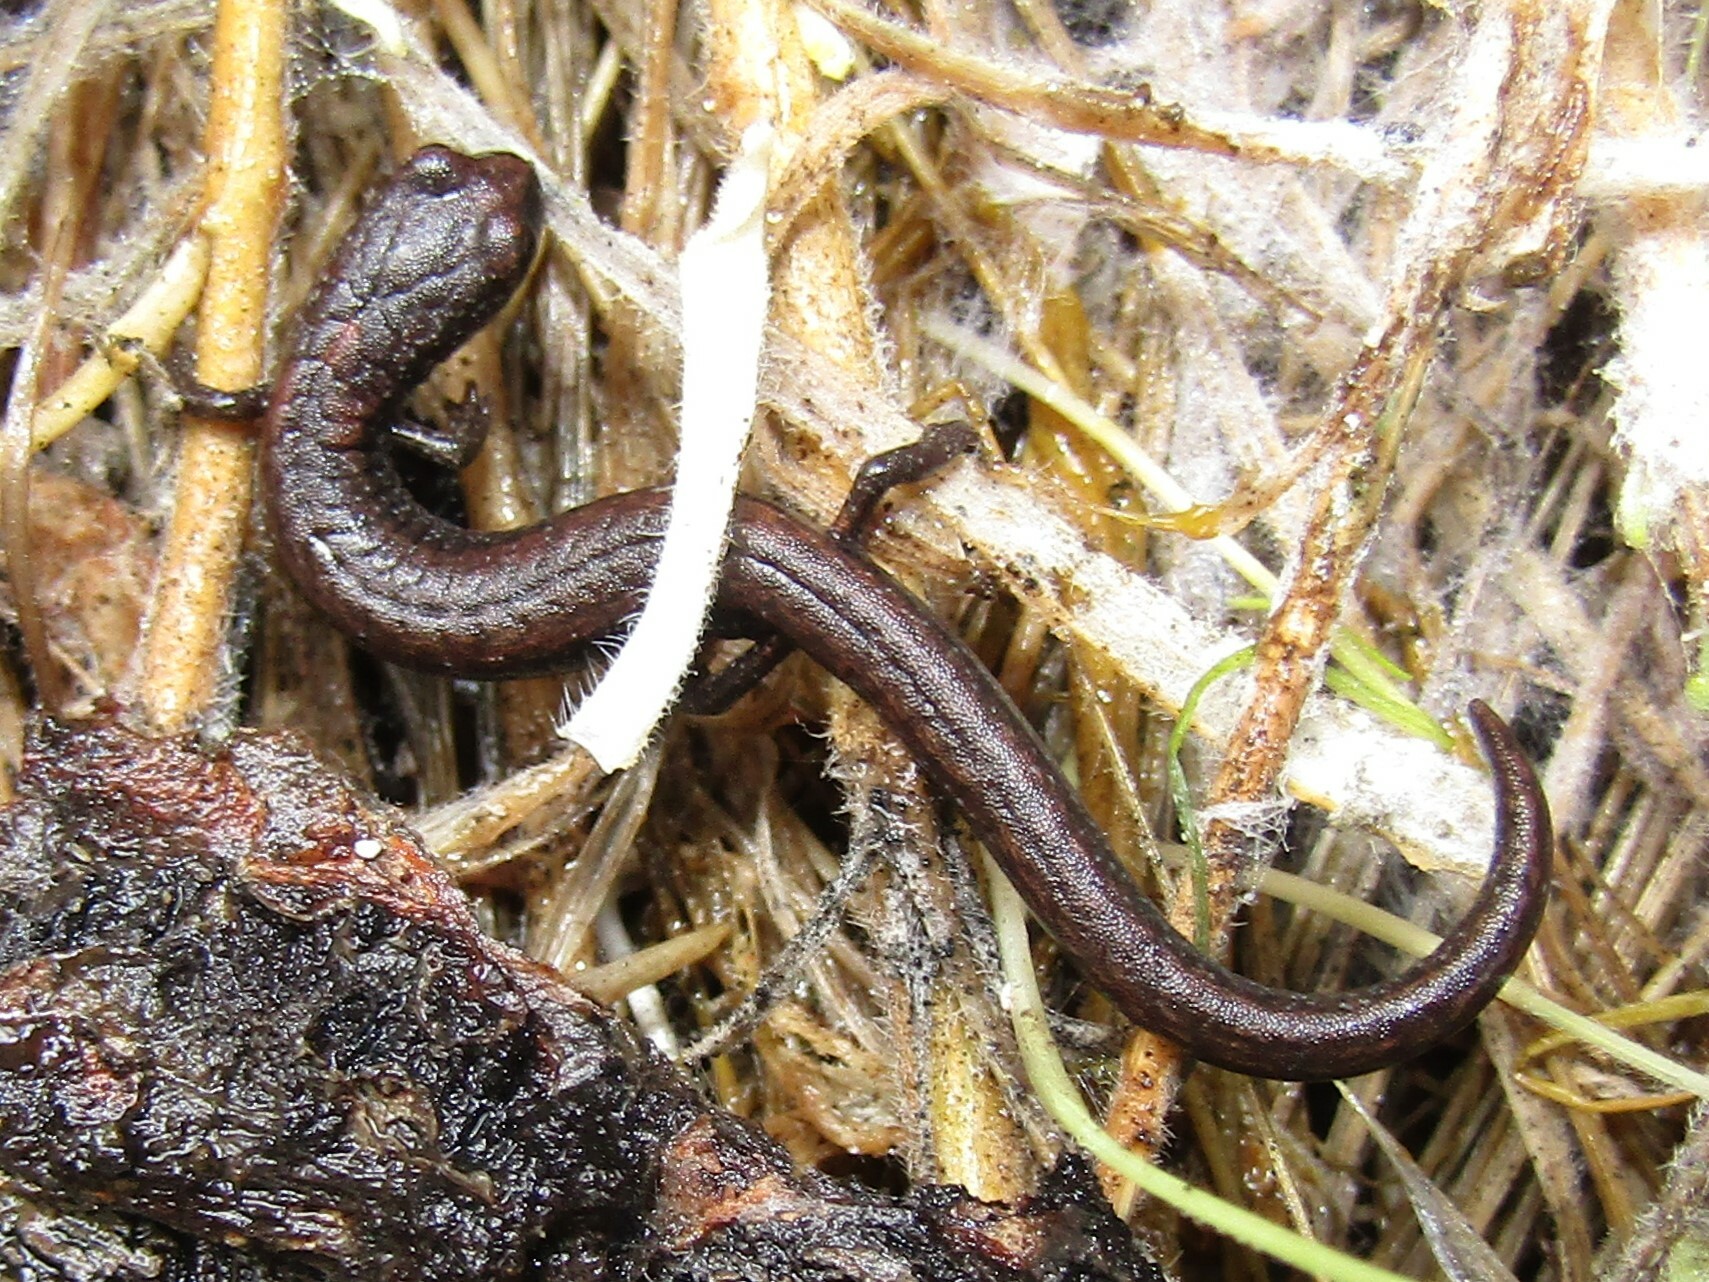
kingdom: Animalia
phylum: Chordata
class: Amphibia
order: Caudata
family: Plethodontidae
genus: Batrachoseps
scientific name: Batrachoseps simatus
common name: Kern canyon slender salamander
